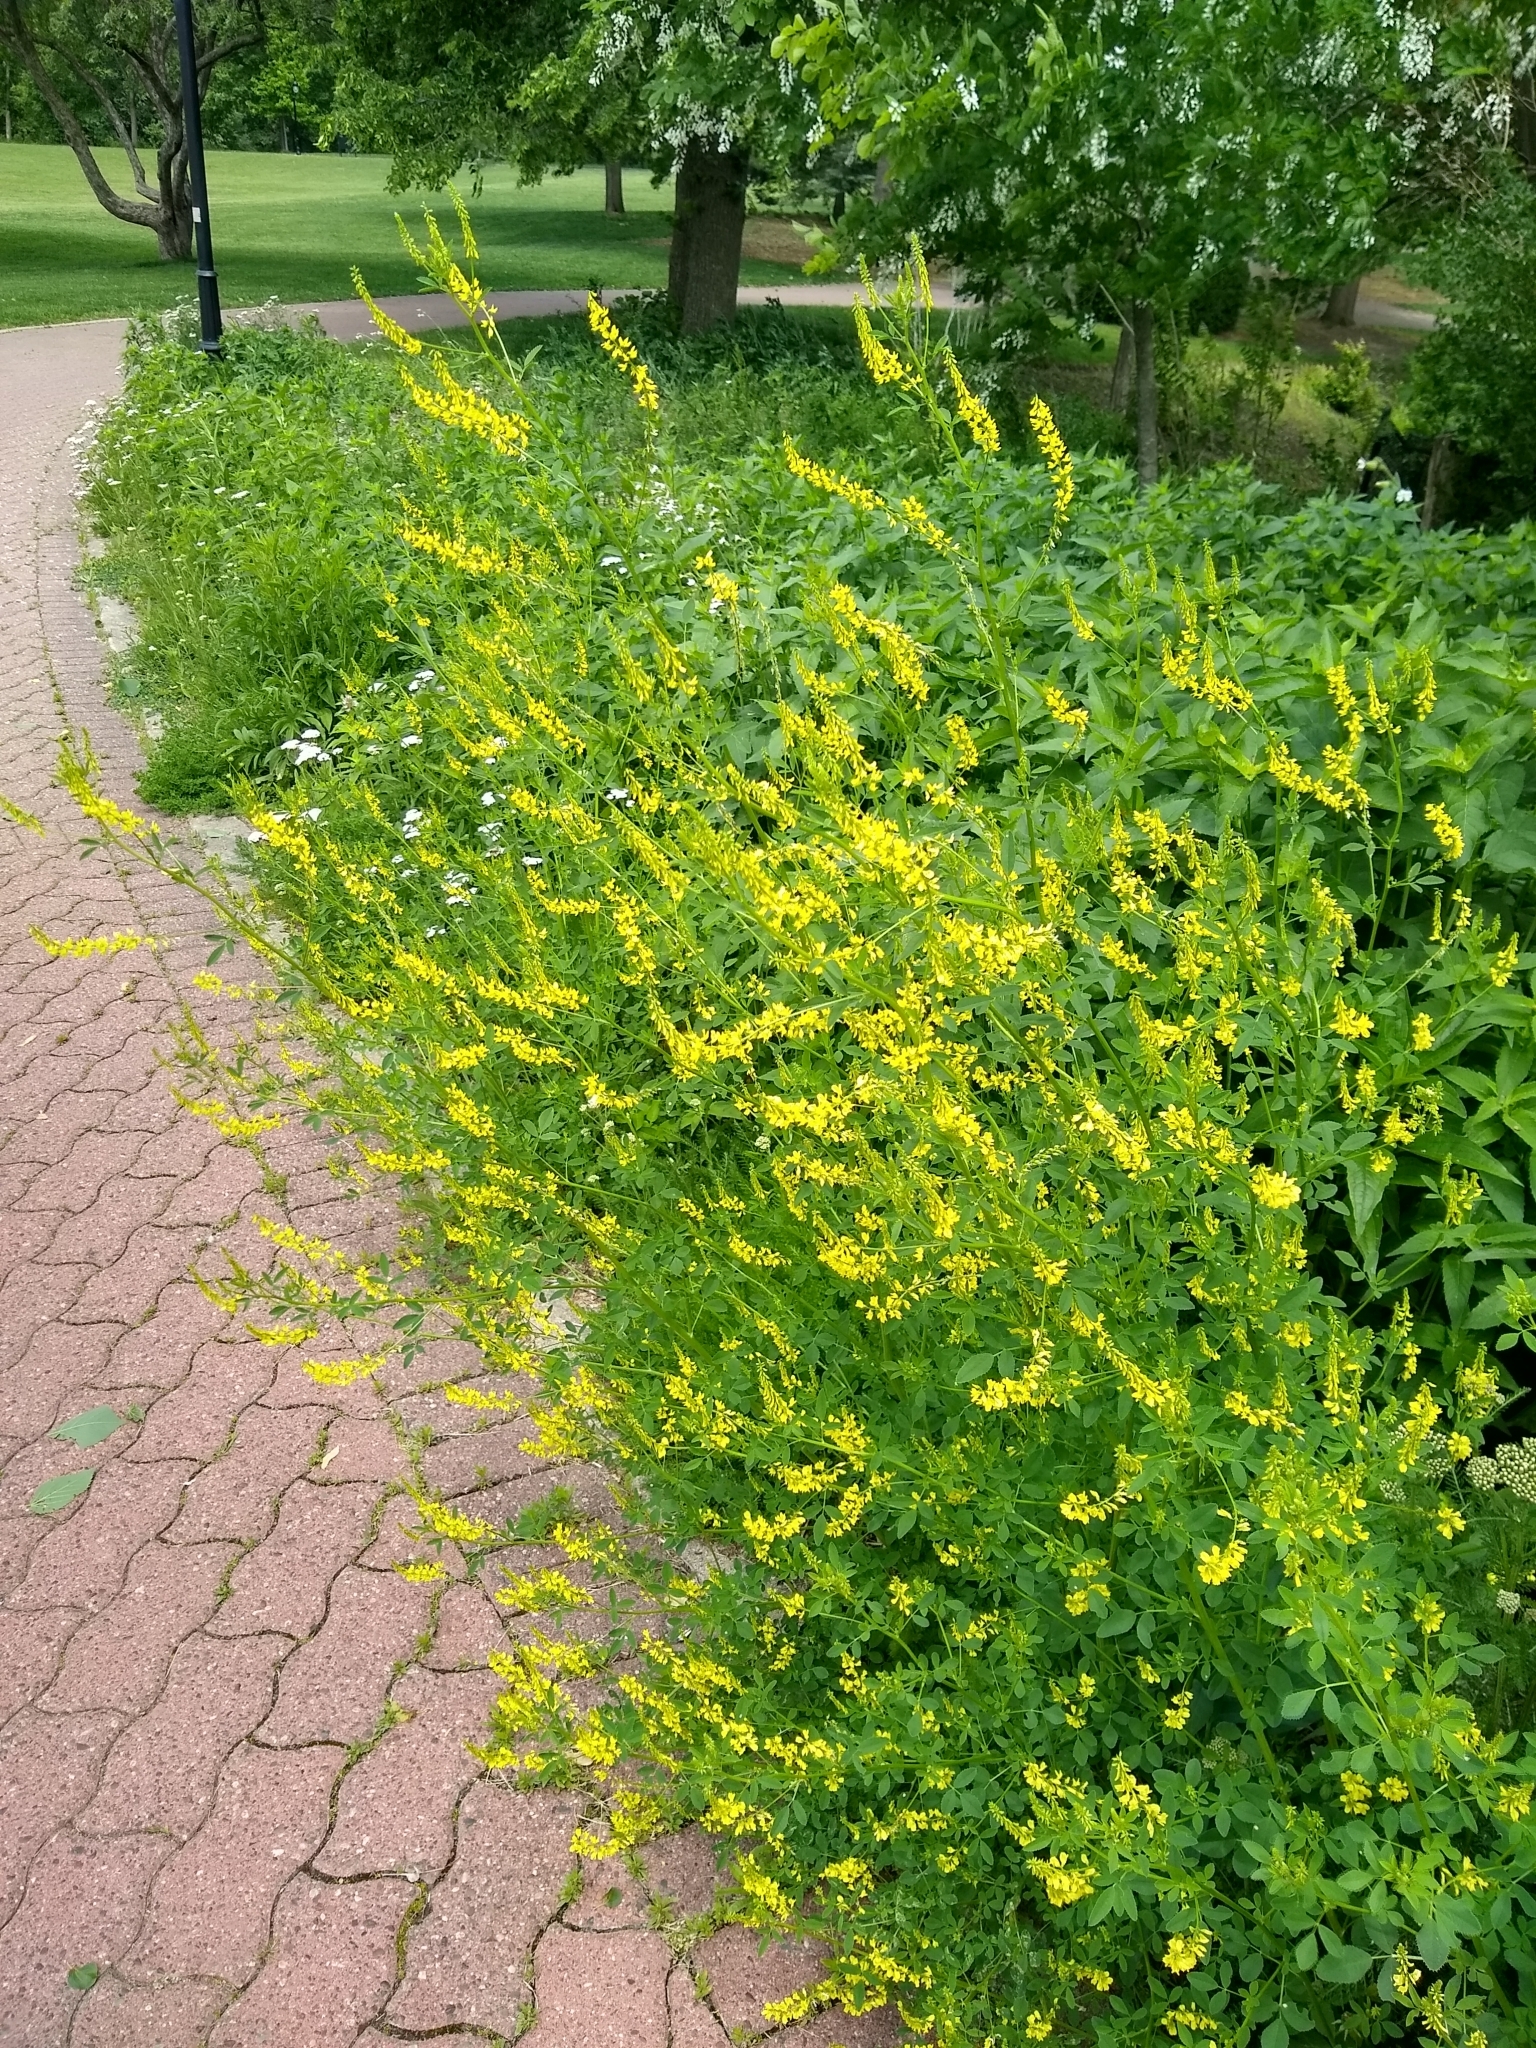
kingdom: Plantae
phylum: Tracheophyta
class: Magnoliopsida
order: Fabales
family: Fabaceae
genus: Melilotus
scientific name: Melilotus officinalis
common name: Sweetclover
